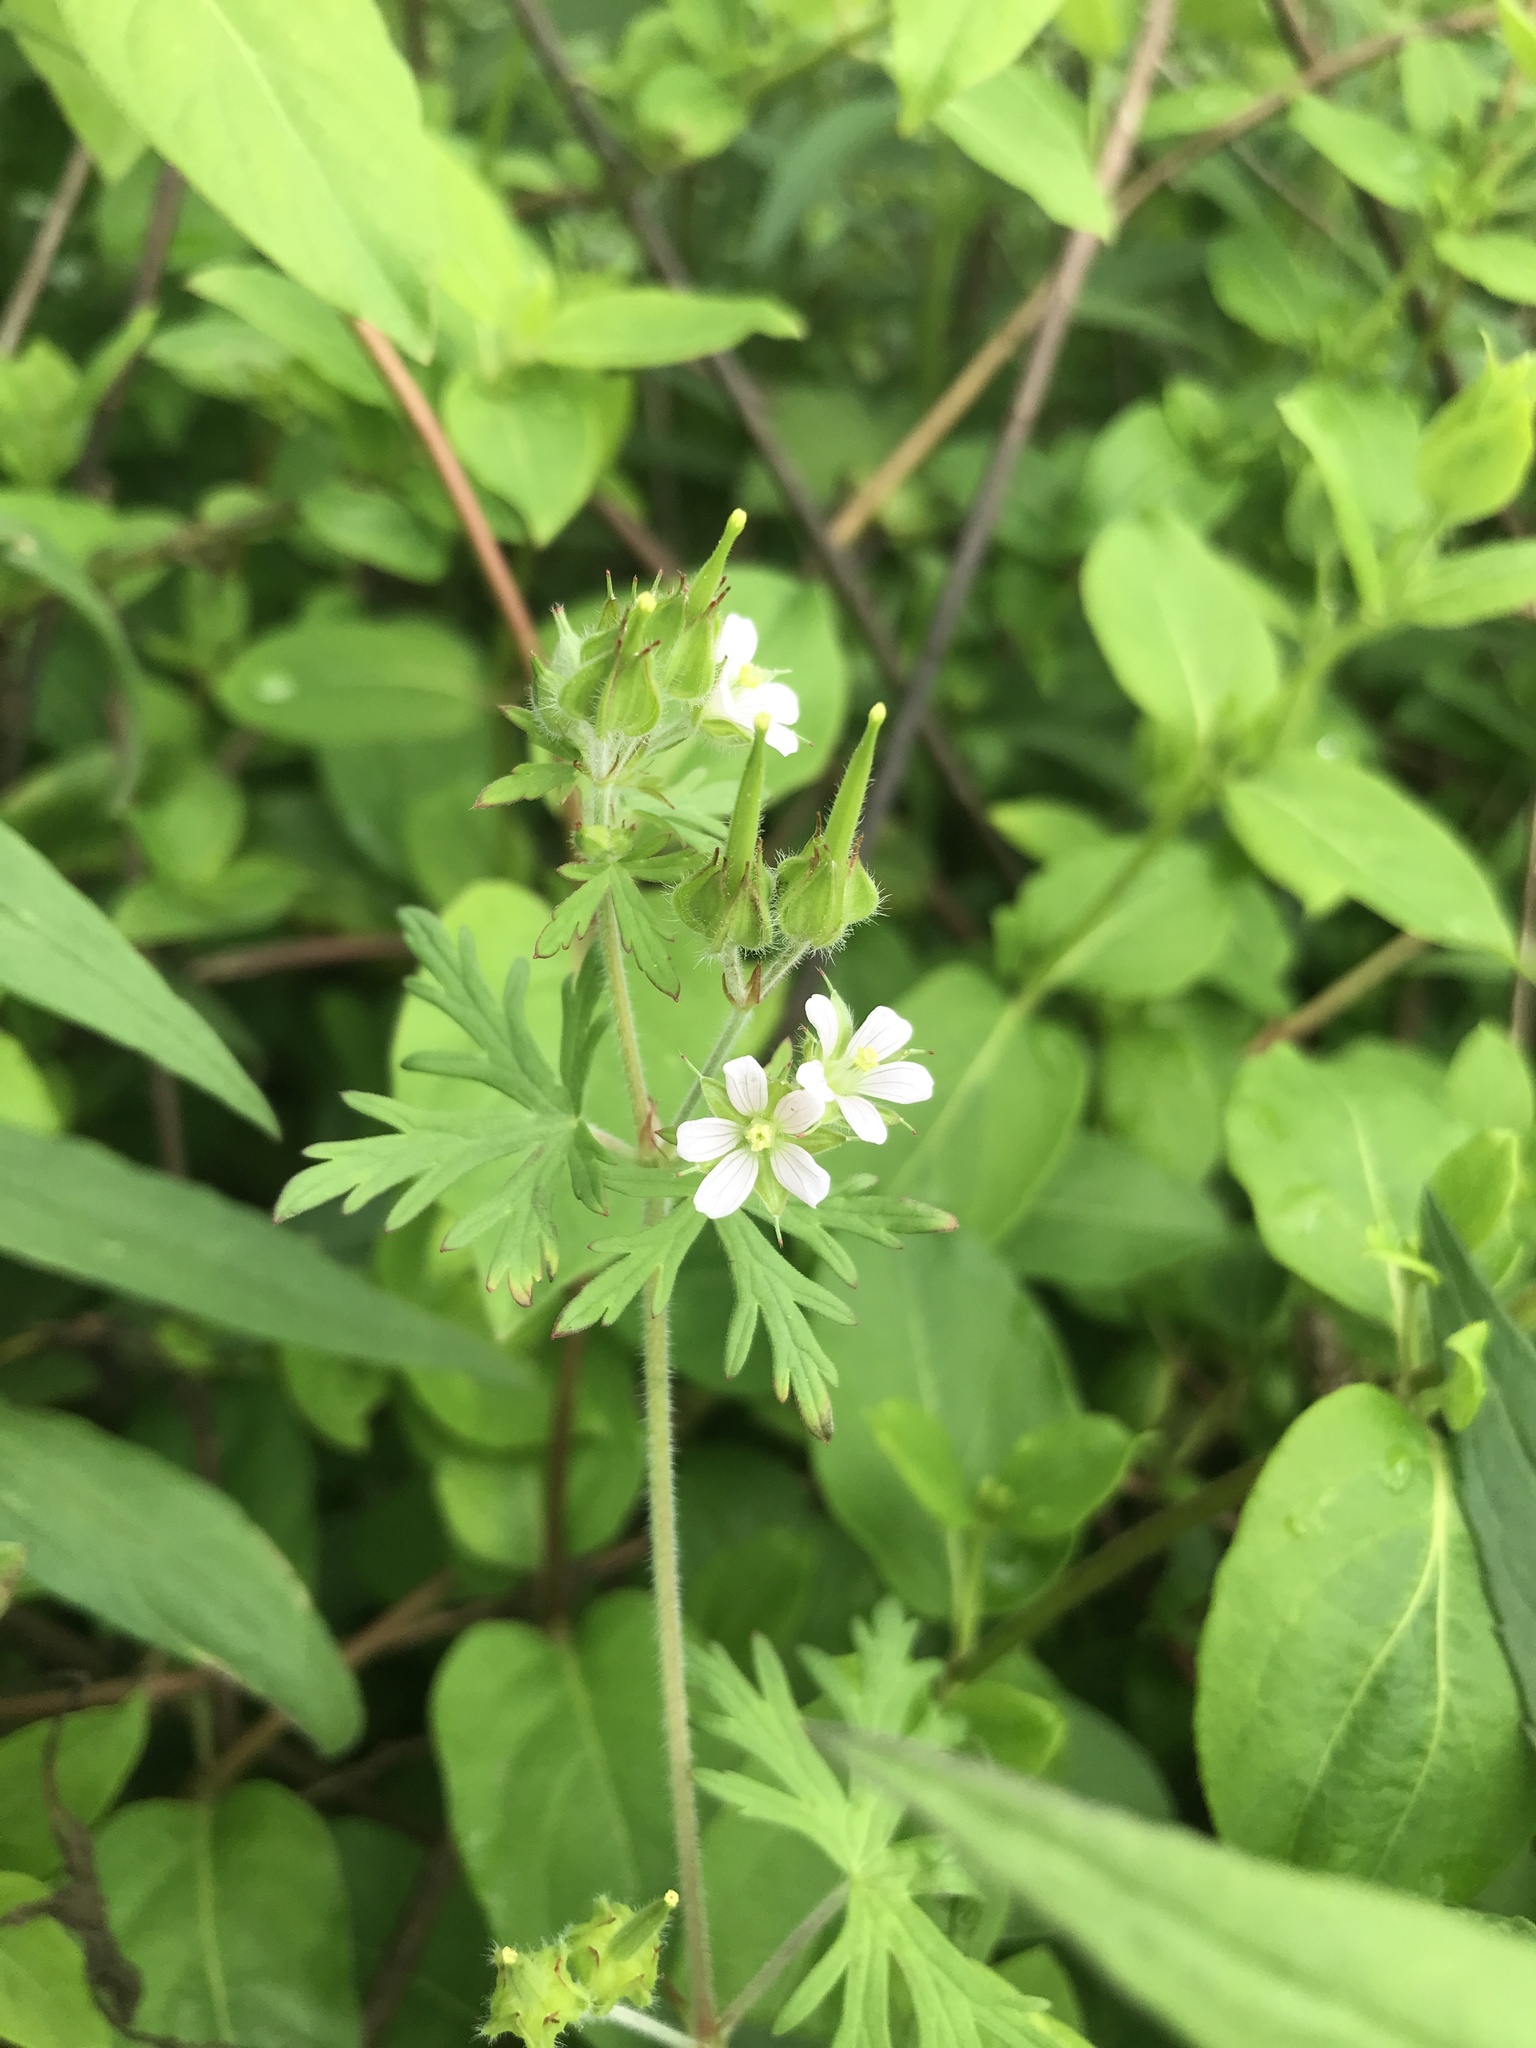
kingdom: Plantae
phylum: Tracheophyta
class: Magnoliopsida
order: Geraniales
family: Geraniaceae
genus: Geranium
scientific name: Geranium carolinianum
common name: Carolina crane's-bill
